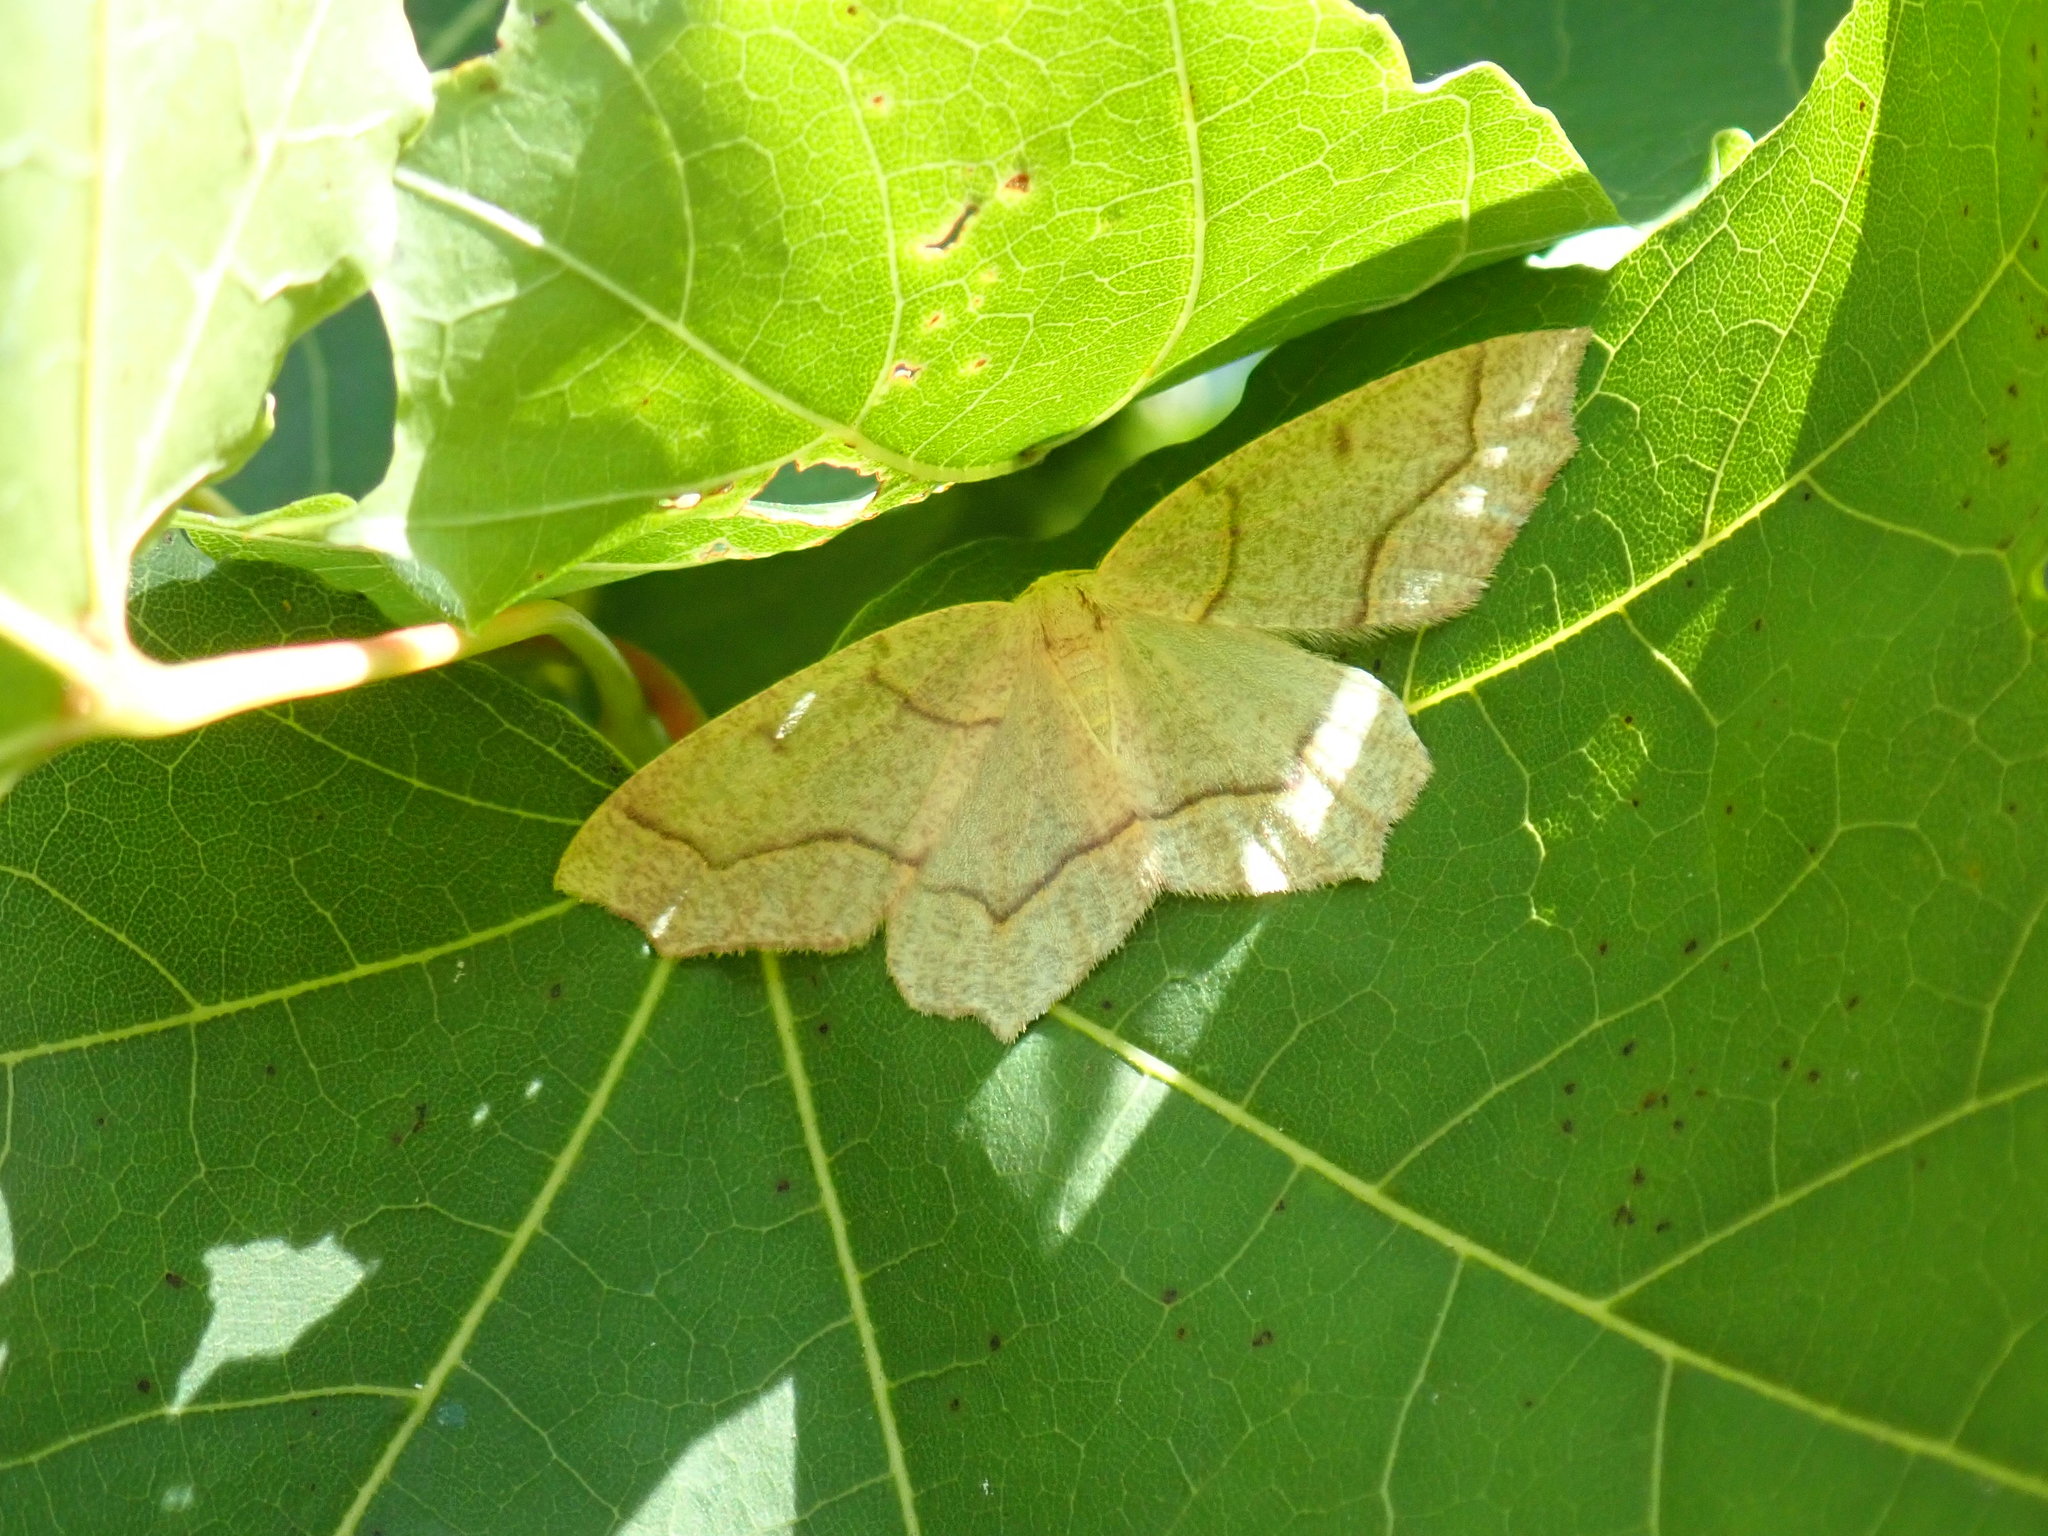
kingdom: Animalia
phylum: Arthropoda
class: Insecta
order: Lepidoptera
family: Geometridae
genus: Lambdina
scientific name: Lambdina fiscellaria
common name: Hemlock looper
